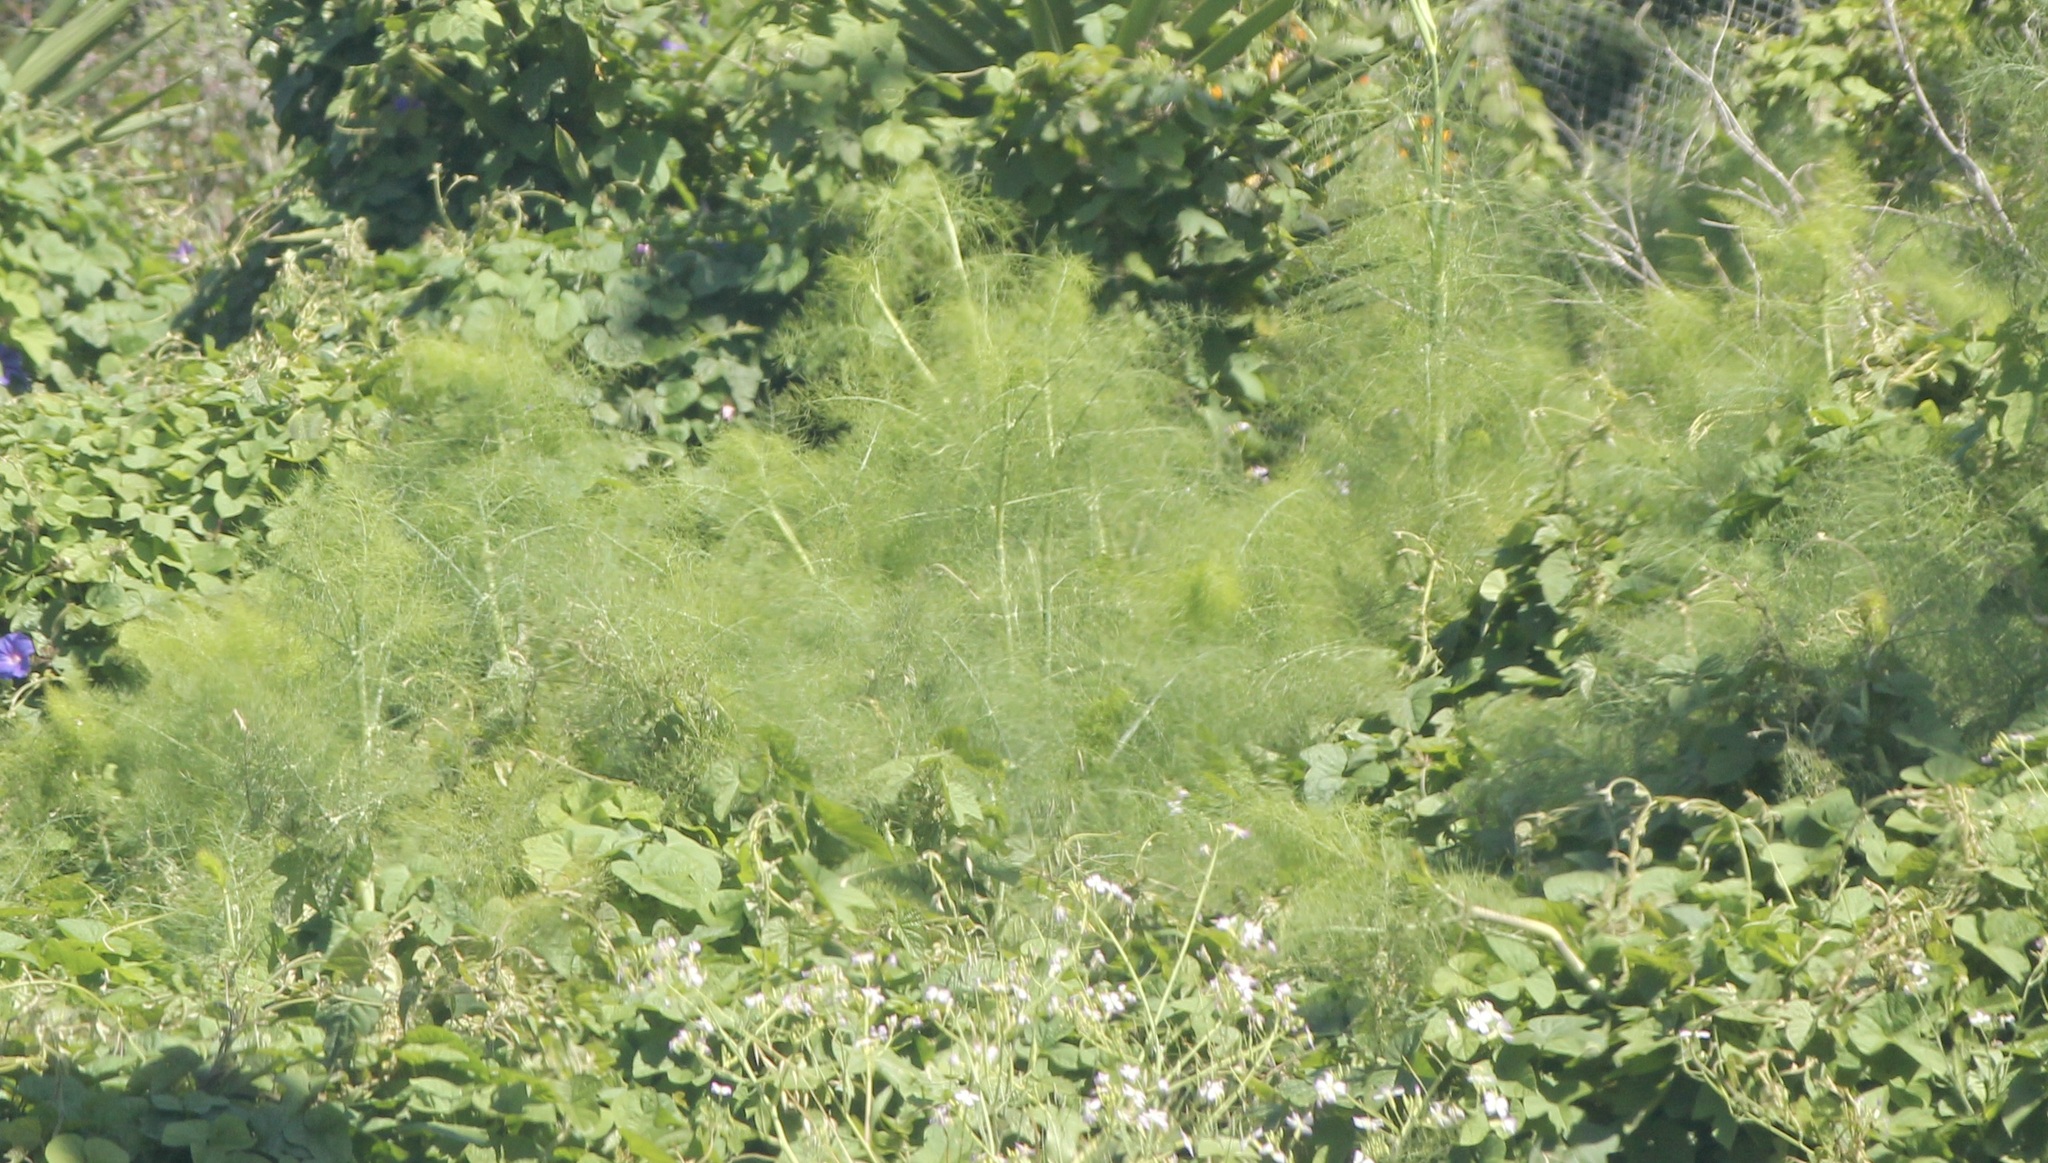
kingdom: Plantae
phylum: Tracheophyta
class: Magnoliopsida
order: Apiales
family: Apiaceae
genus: Foeniculum
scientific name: Foeniculum vulgare
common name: Fennel
